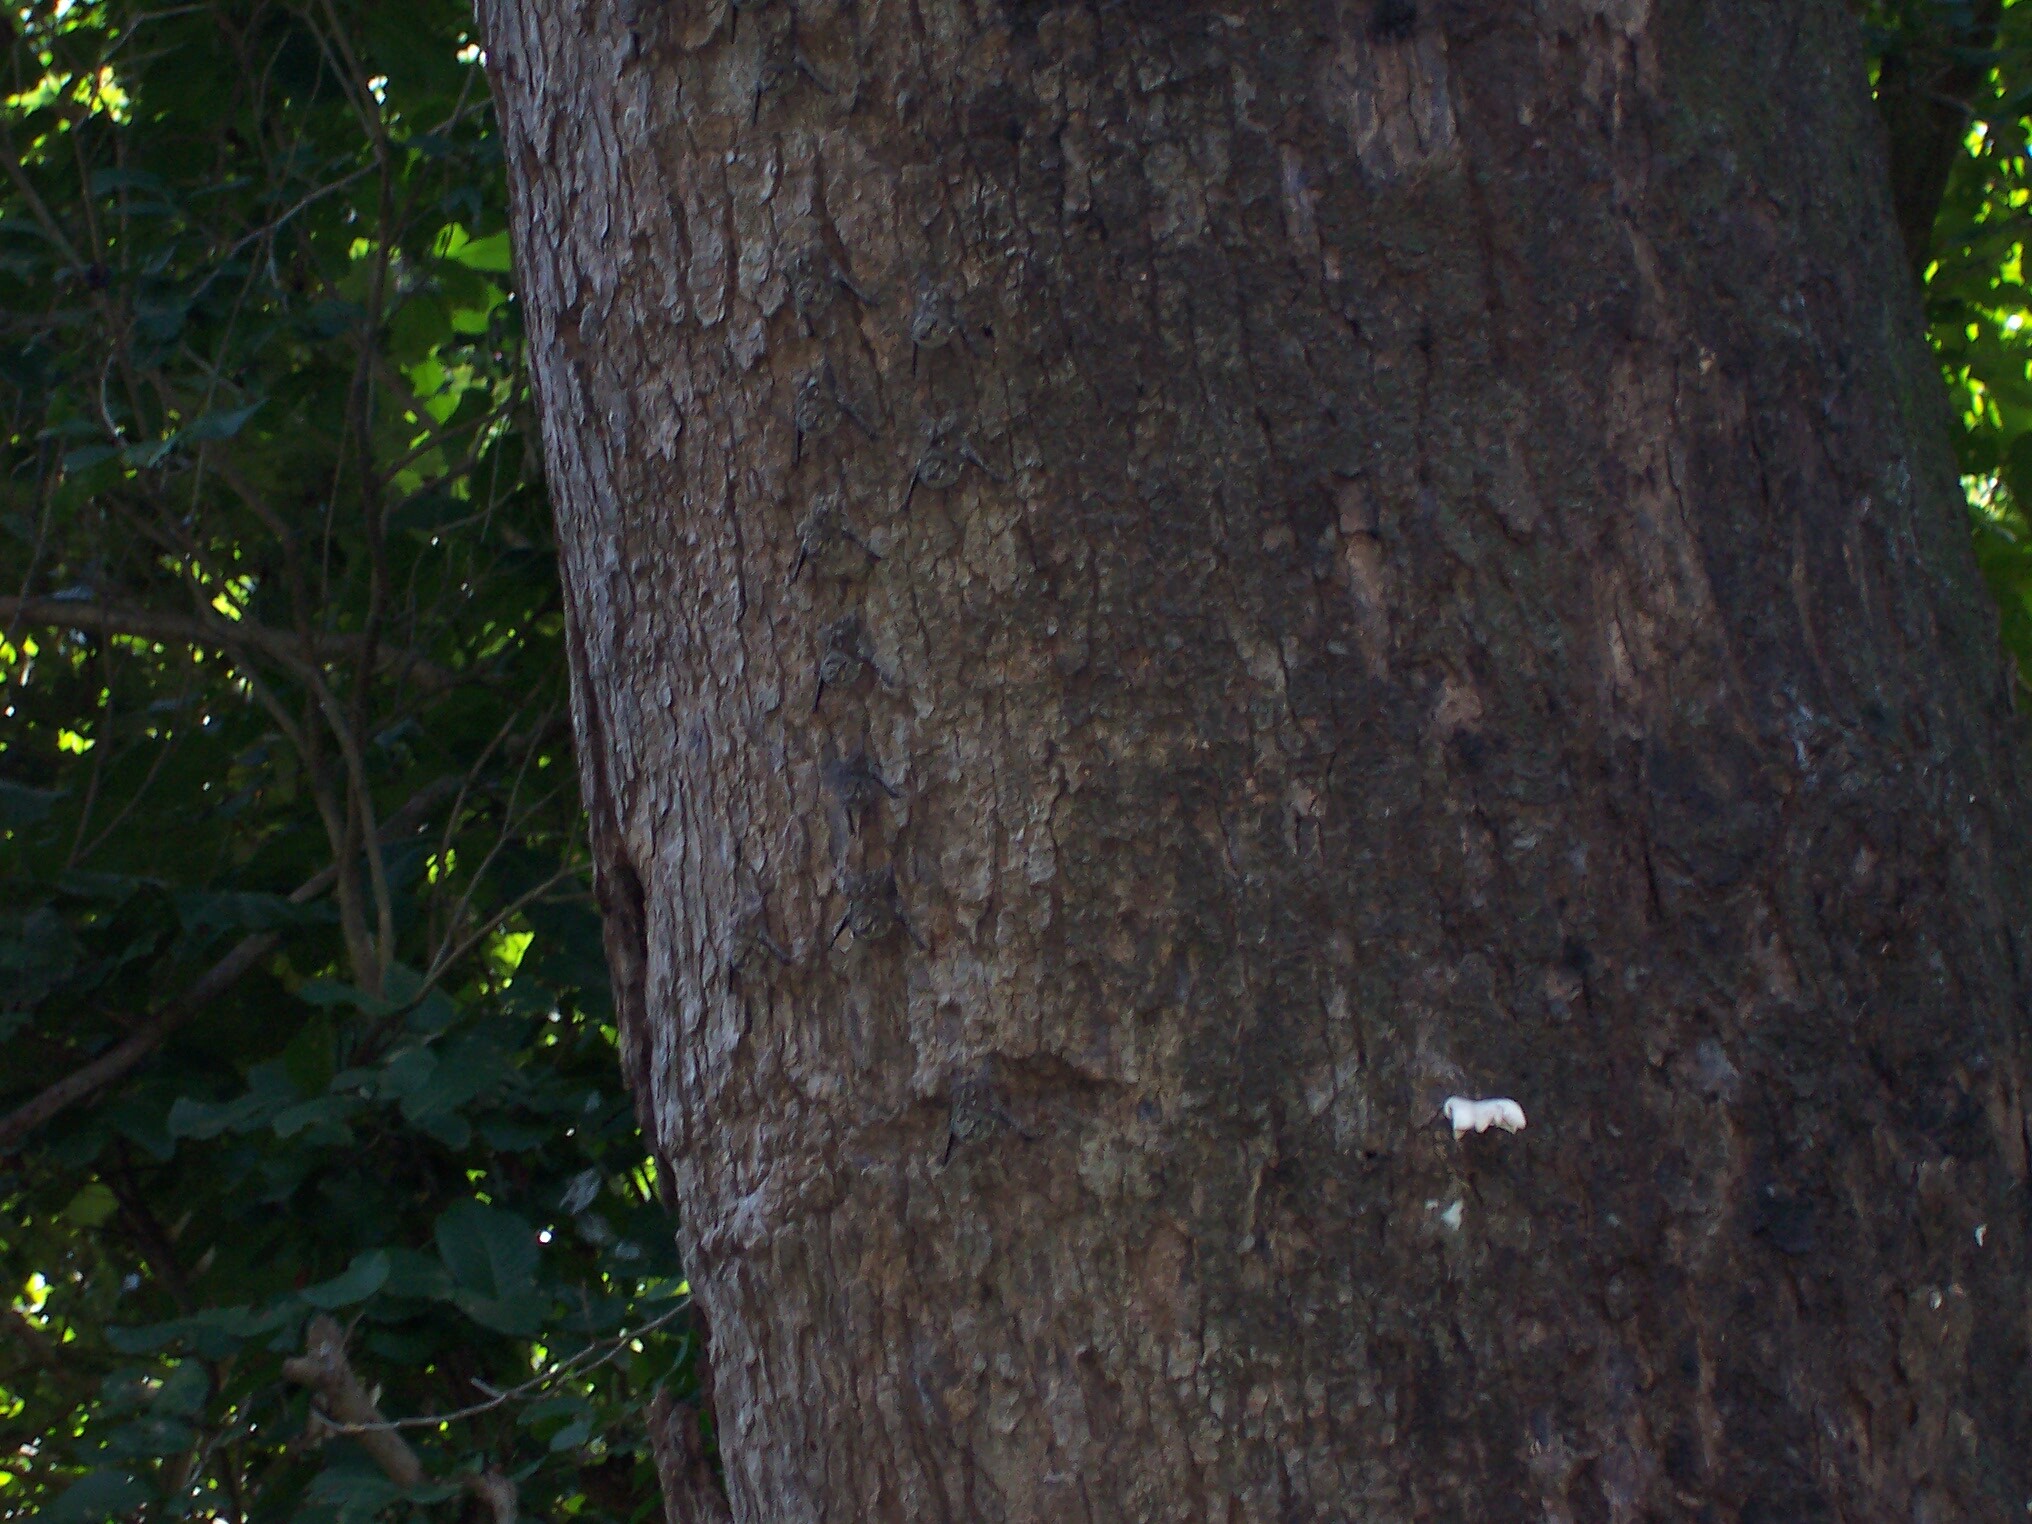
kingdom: Animalia
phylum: Chordata
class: Mammalia
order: Chiroptera
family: Emballonuridae
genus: Rhynchonycteris
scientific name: Rhynchonycteris naso
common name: Proboscis bat
